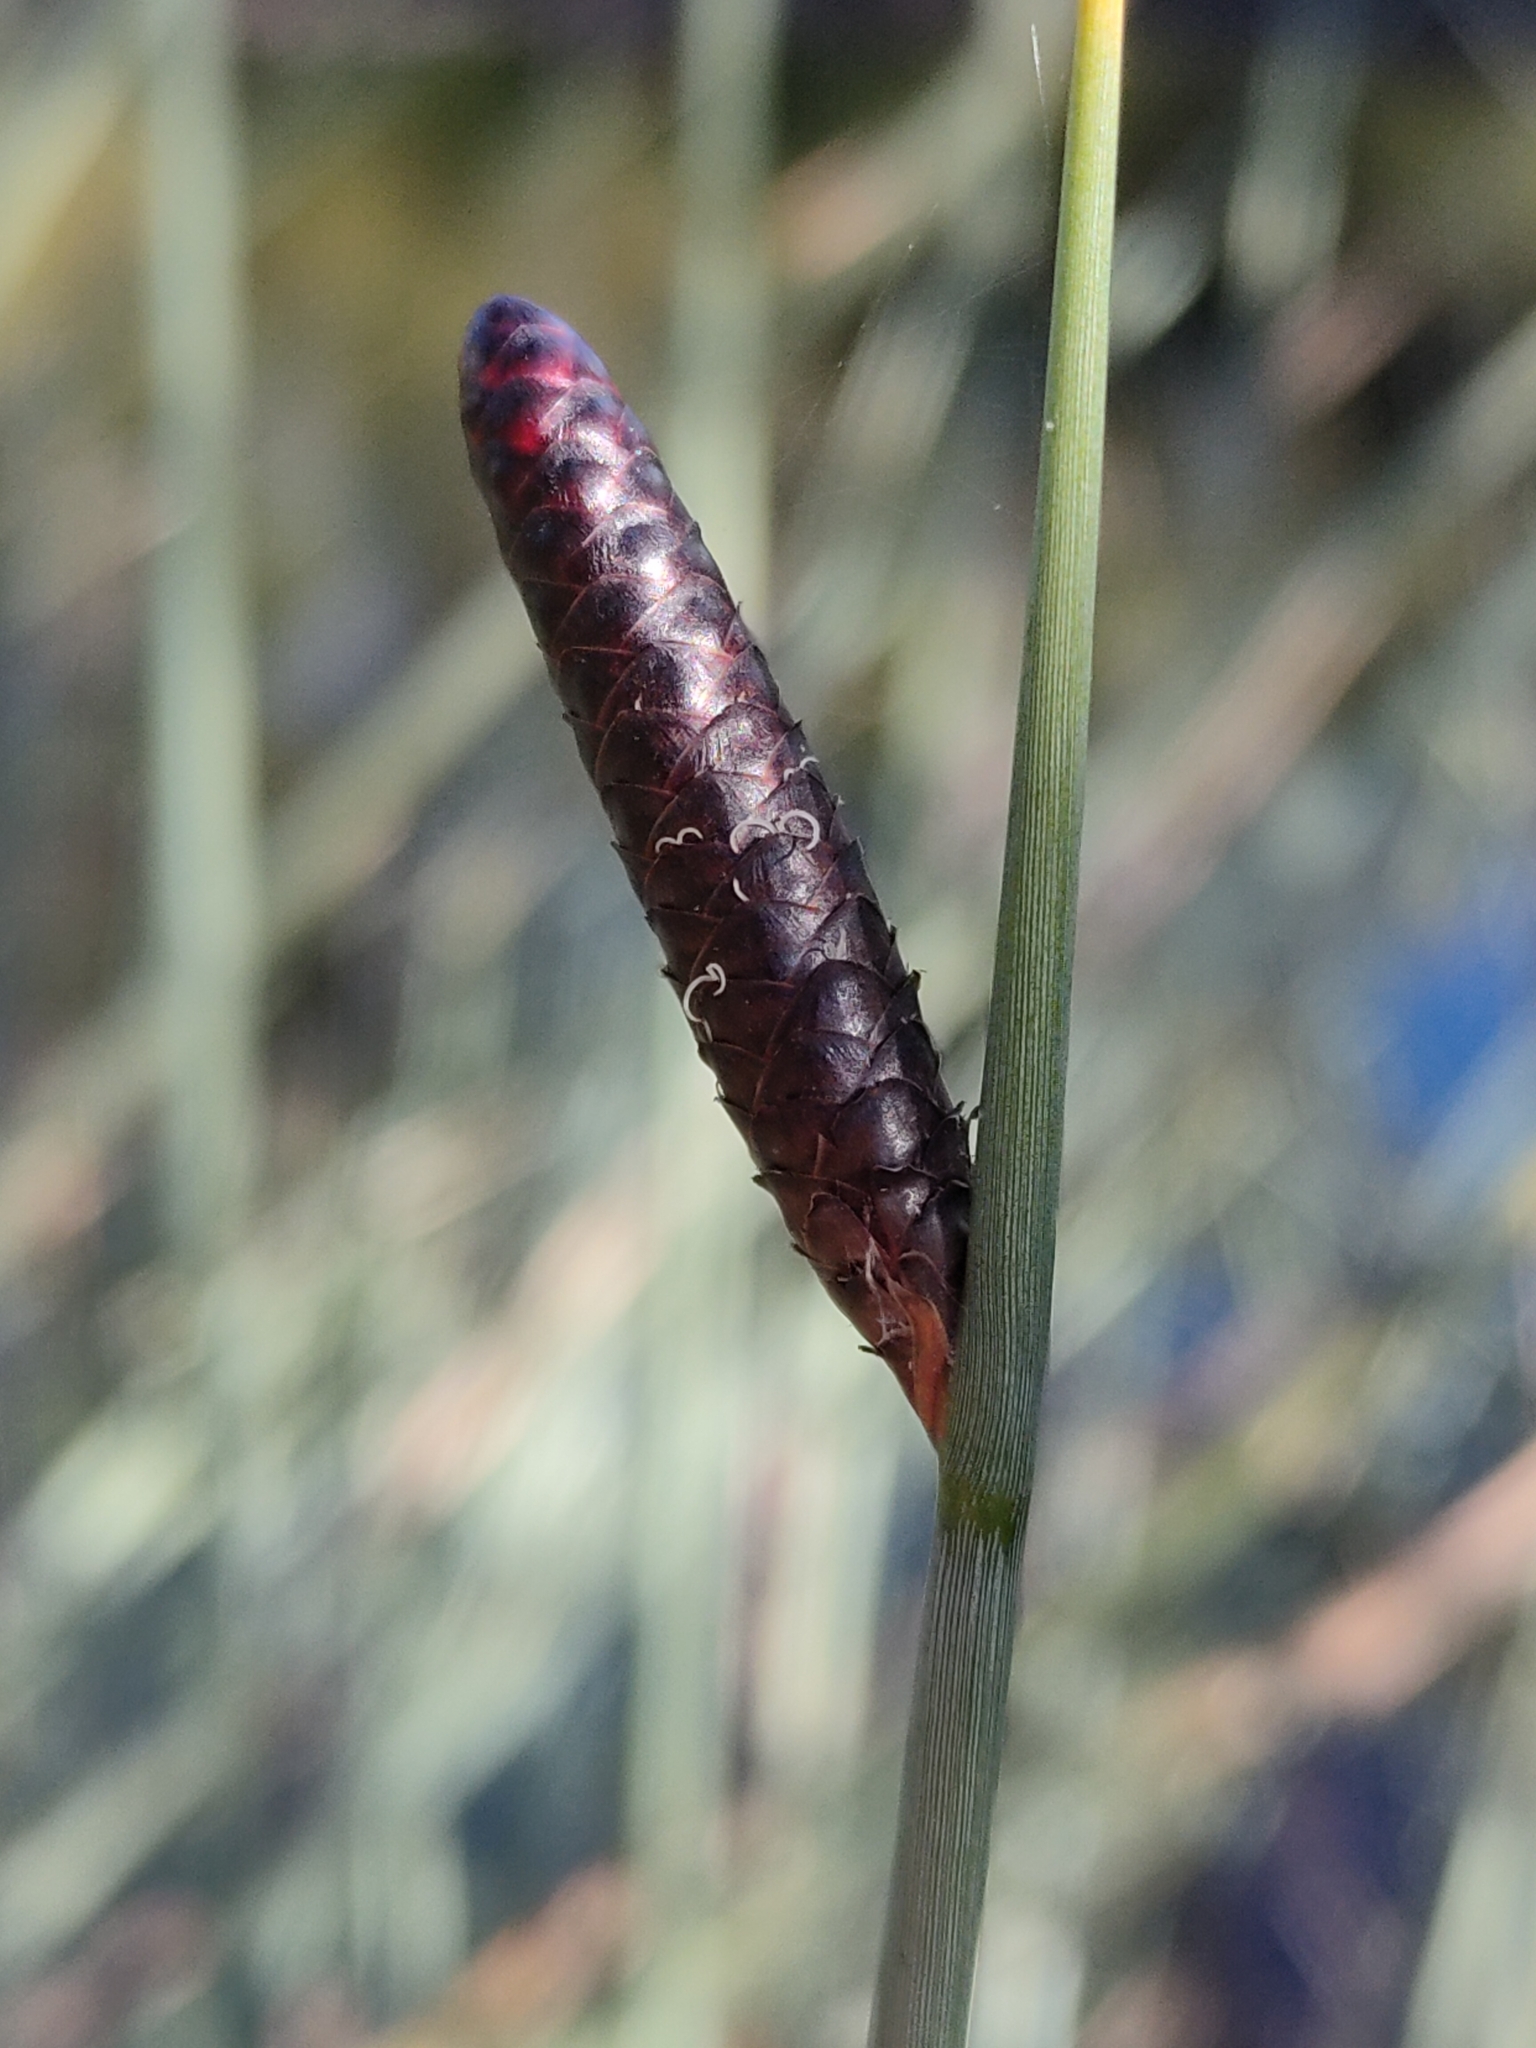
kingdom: Plantae
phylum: Tracheophyta
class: Liliopsida
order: Poales
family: Cyperaceae
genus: Lepironia
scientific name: Lepironia articulata
